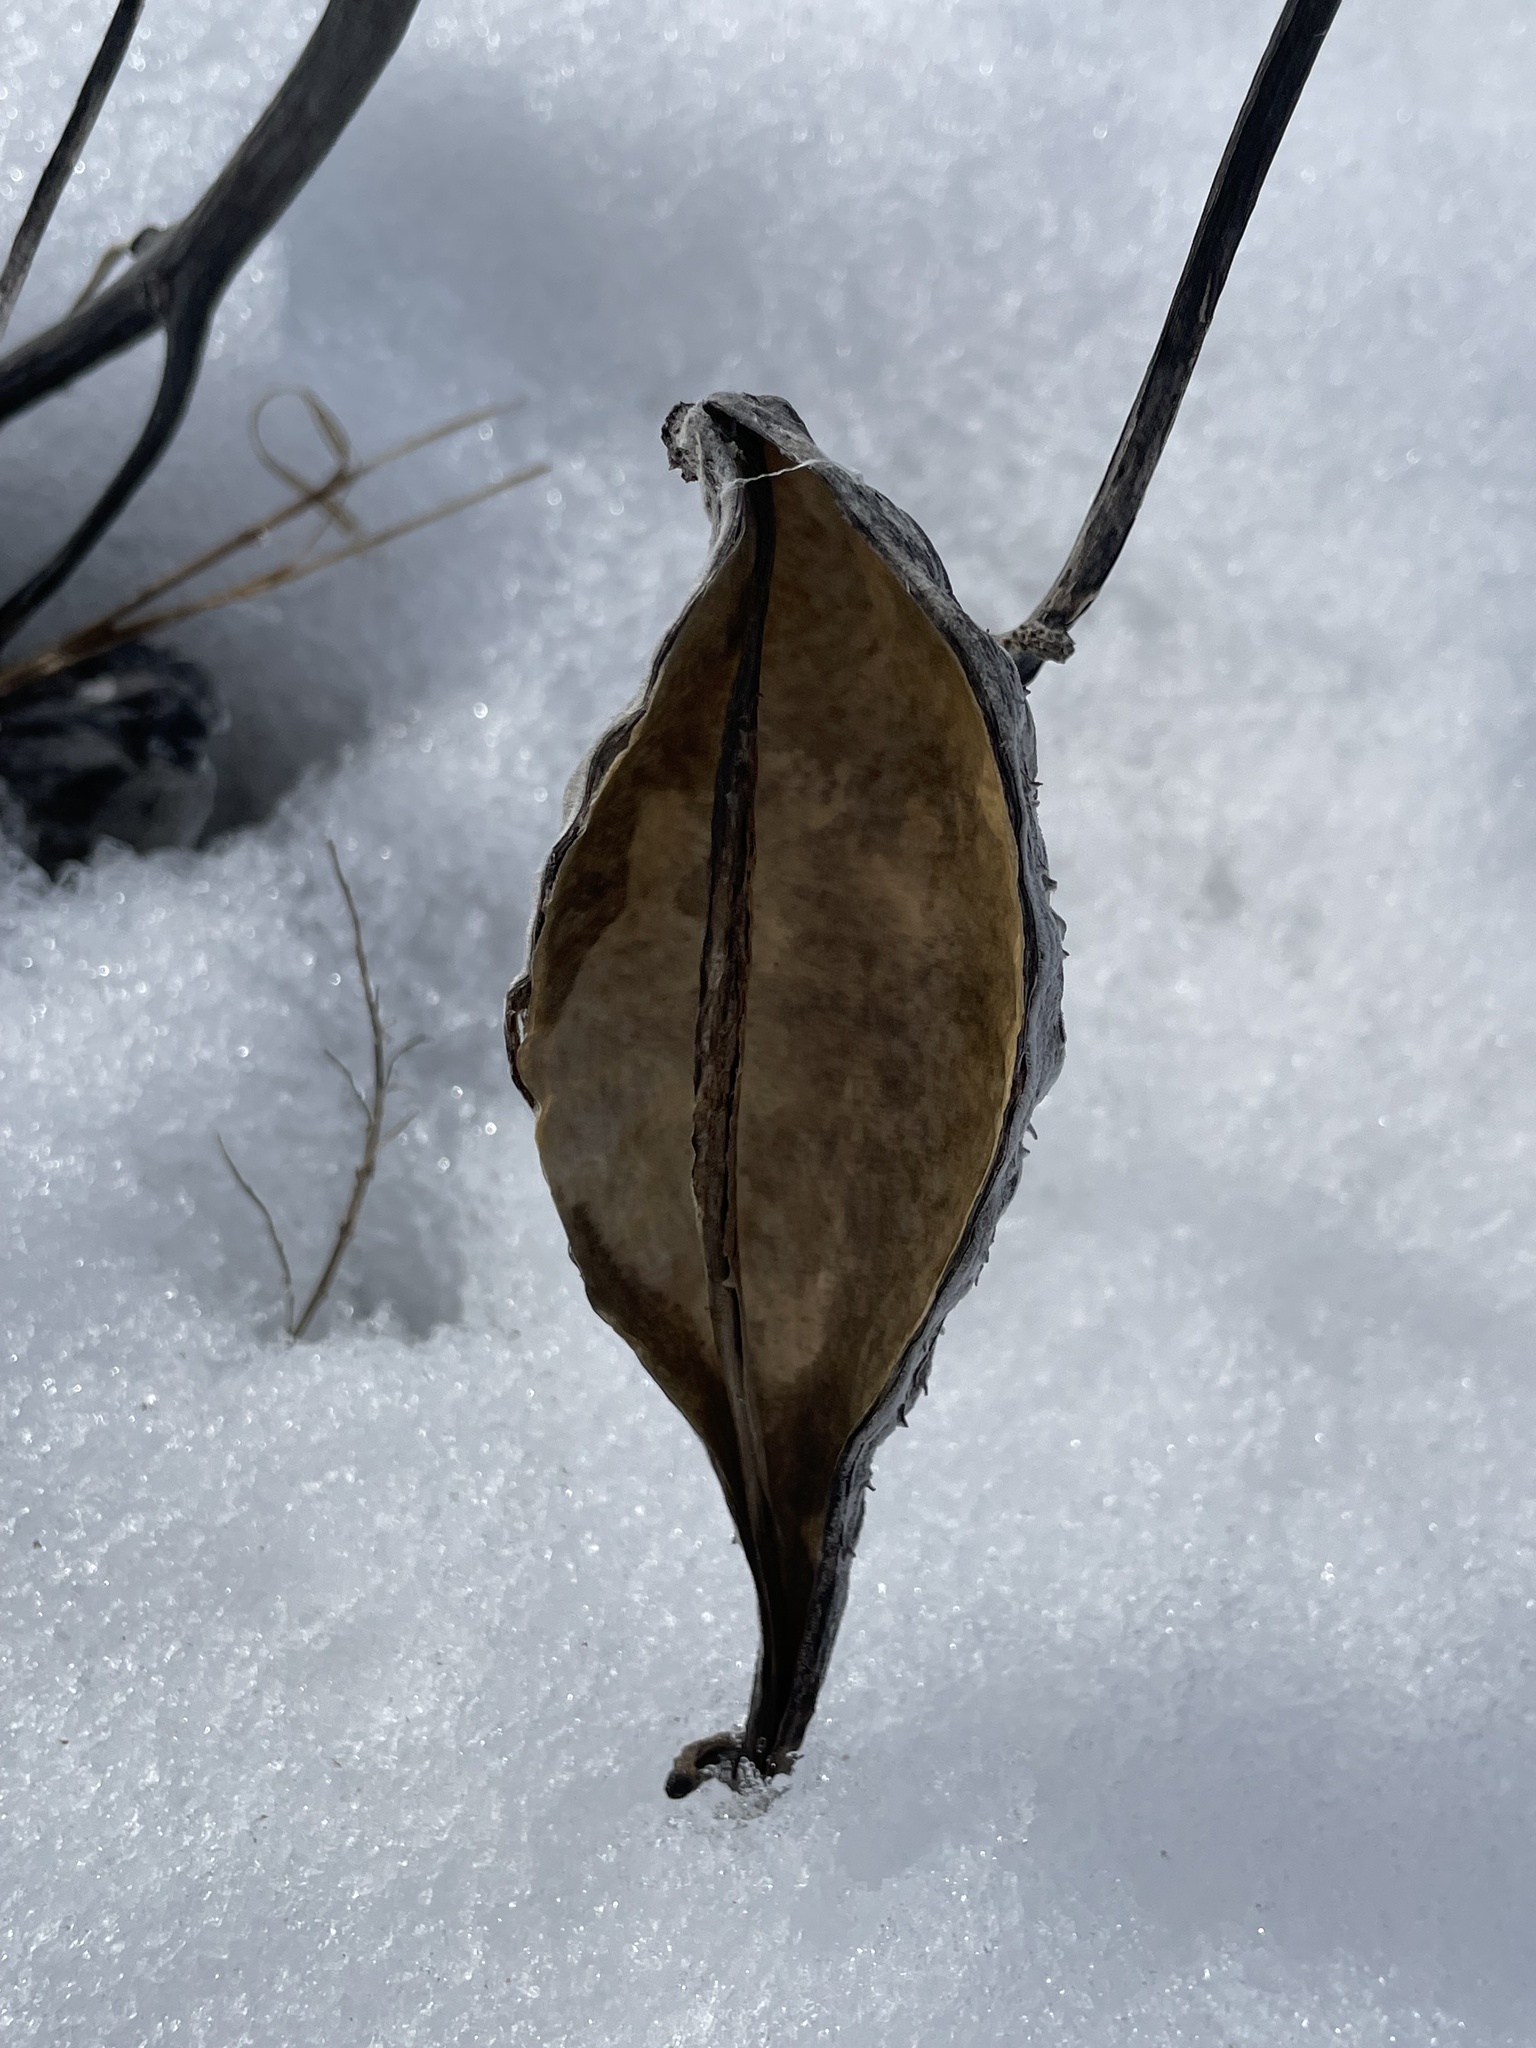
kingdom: Plantae
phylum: Tracheophyta
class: Magnoliopsida
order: Gentianales
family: Apocynaceae
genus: Asclepias
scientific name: Asclepias syriaca
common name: Common milkweed
